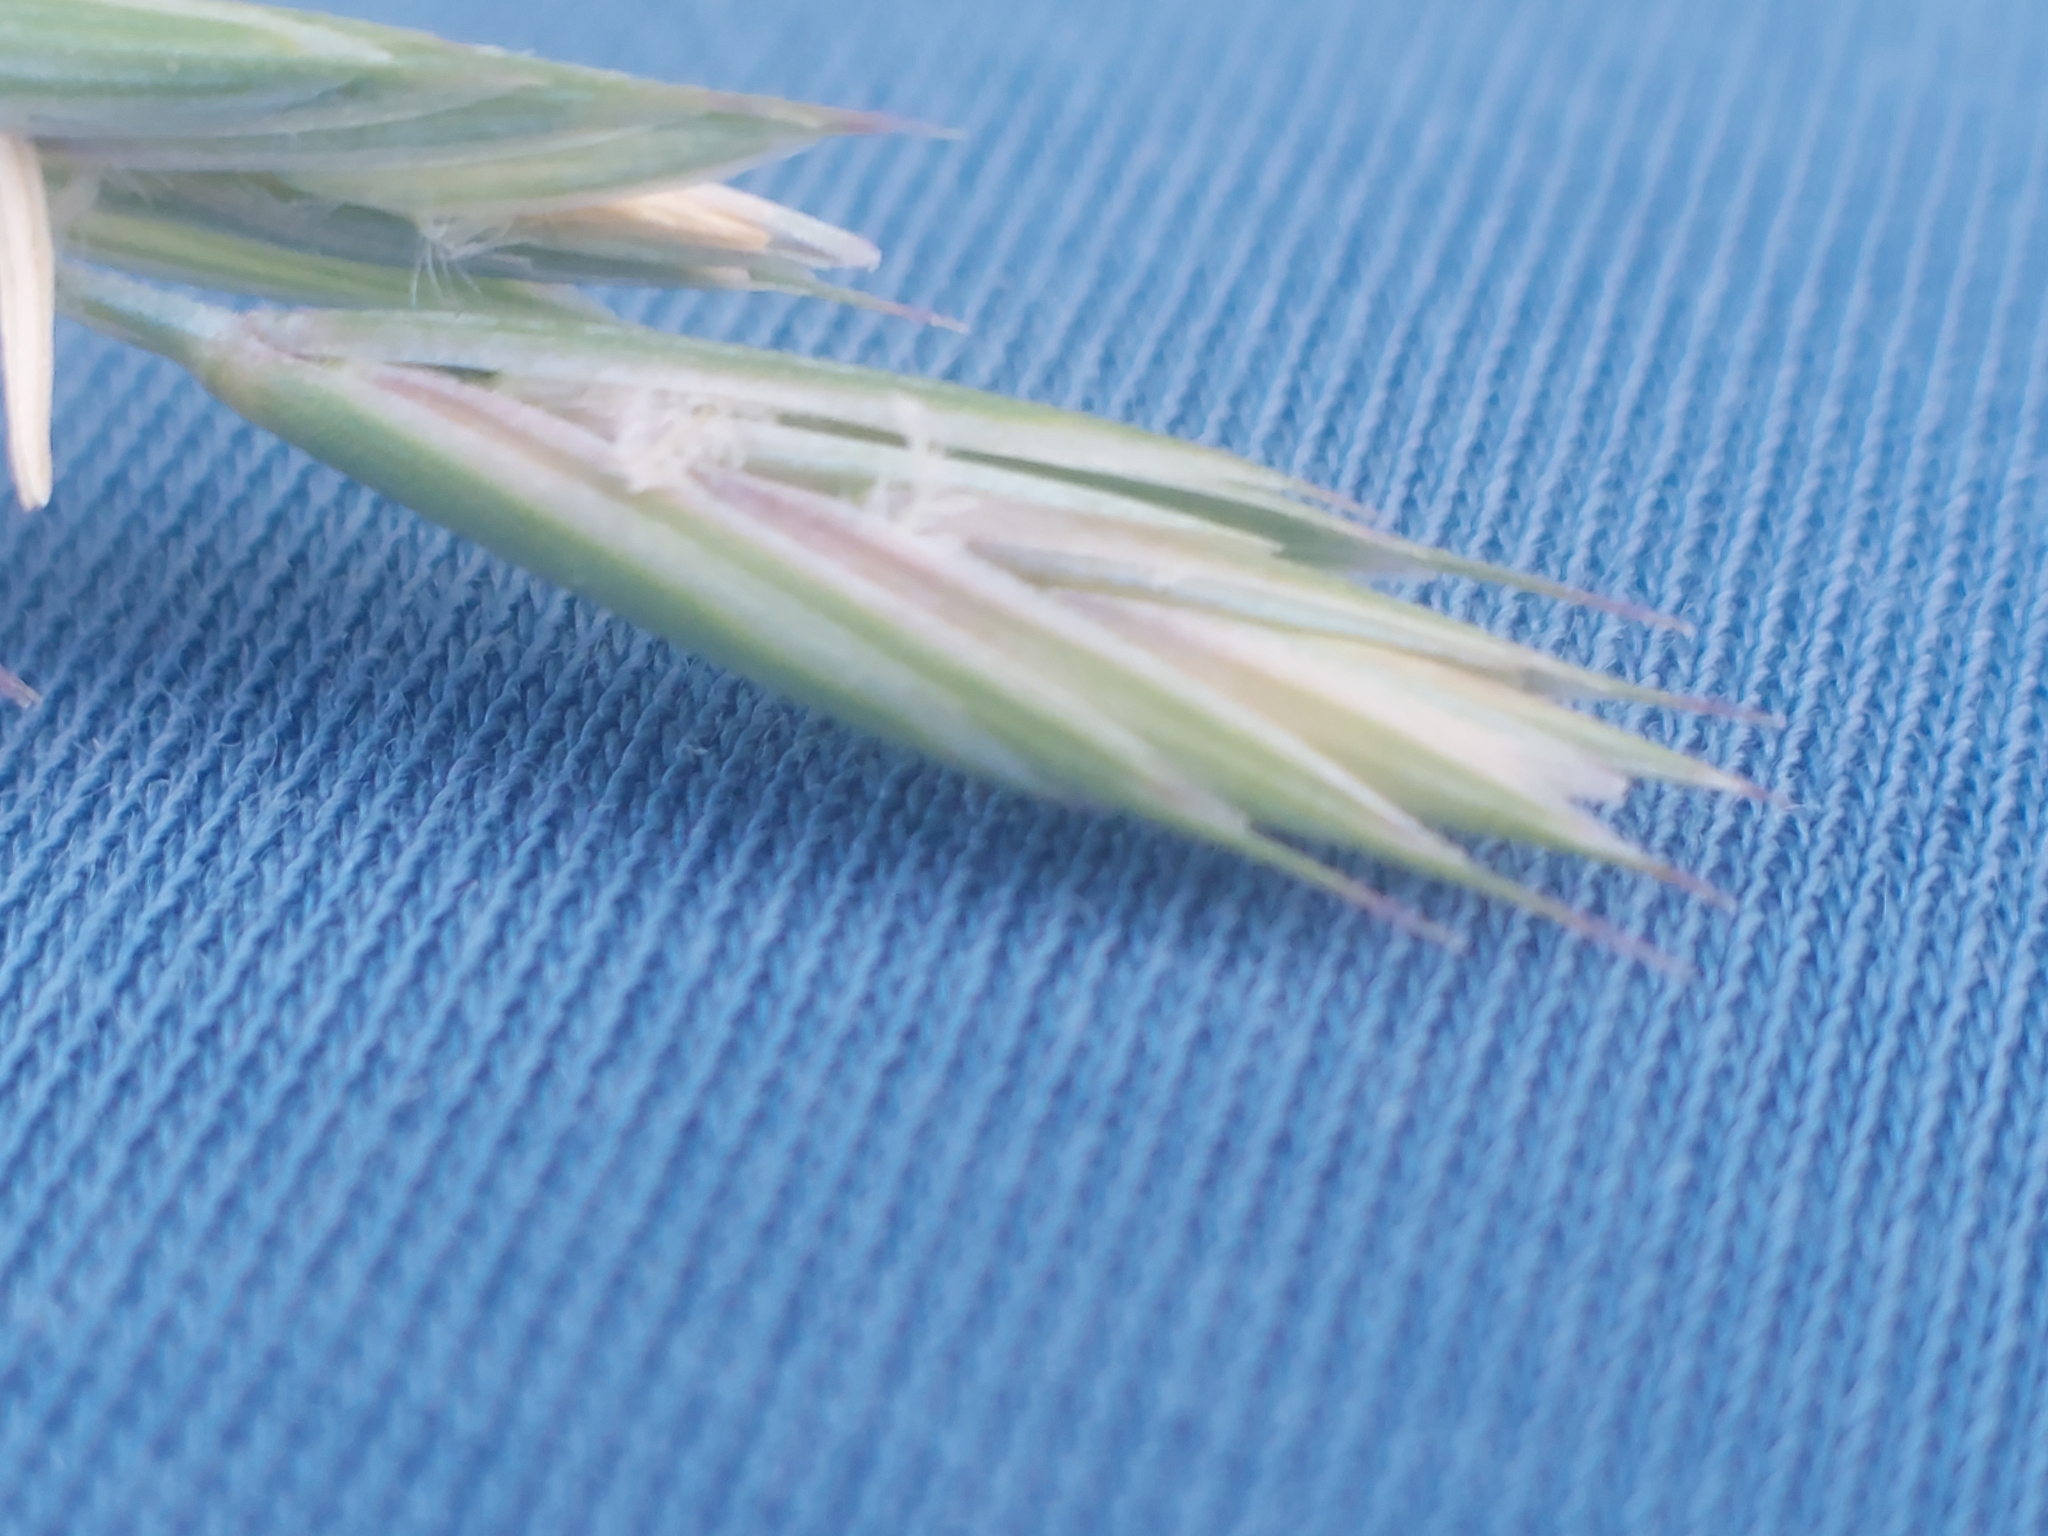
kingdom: Plantae
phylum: Tracheophyta
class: Liliopsida
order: Poales
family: Poaceae
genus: Elymus
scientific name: Elymus repens
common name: Quackgrass
